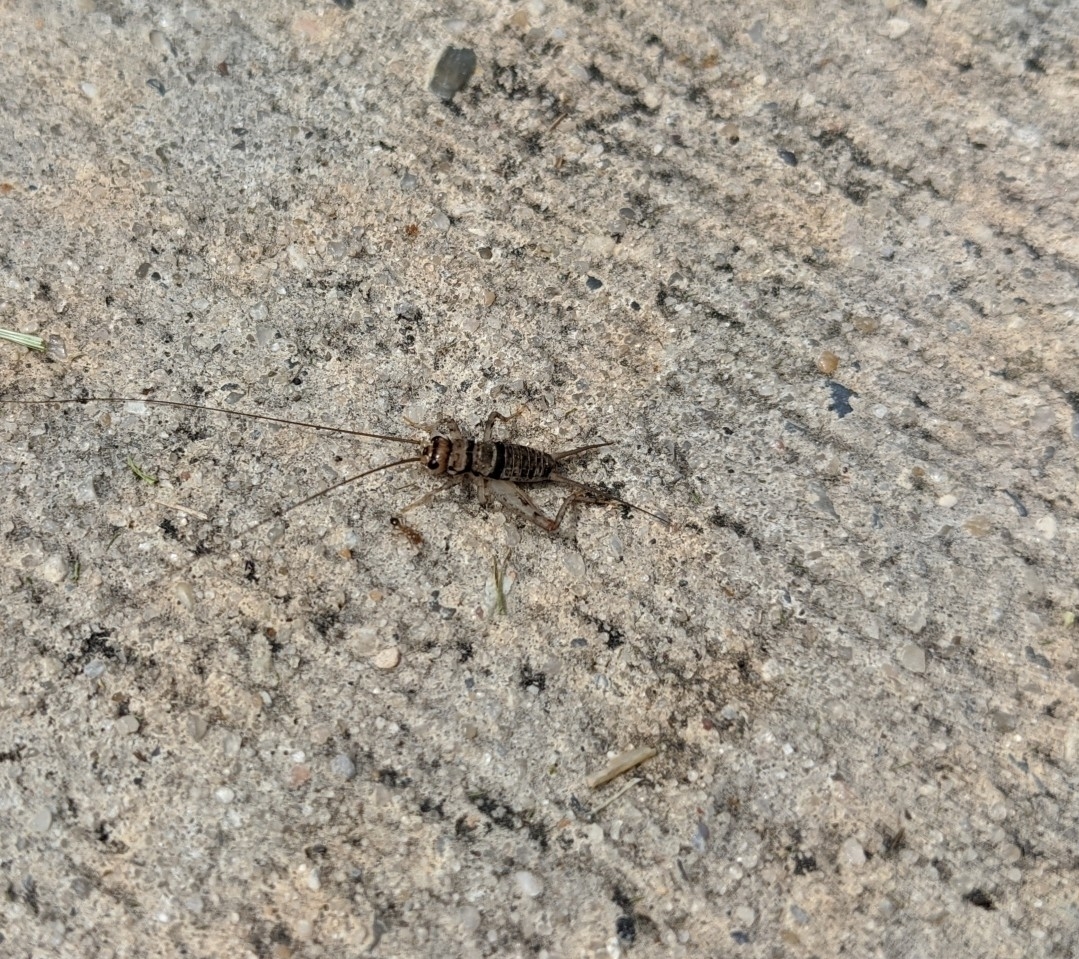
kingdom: Animalia
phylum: Arthropoda
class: Insecta
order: Orthoptera
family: Gryllidae
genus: Gryllodes
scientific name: Gryllodes sigillatus
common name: Tropical house cricket
